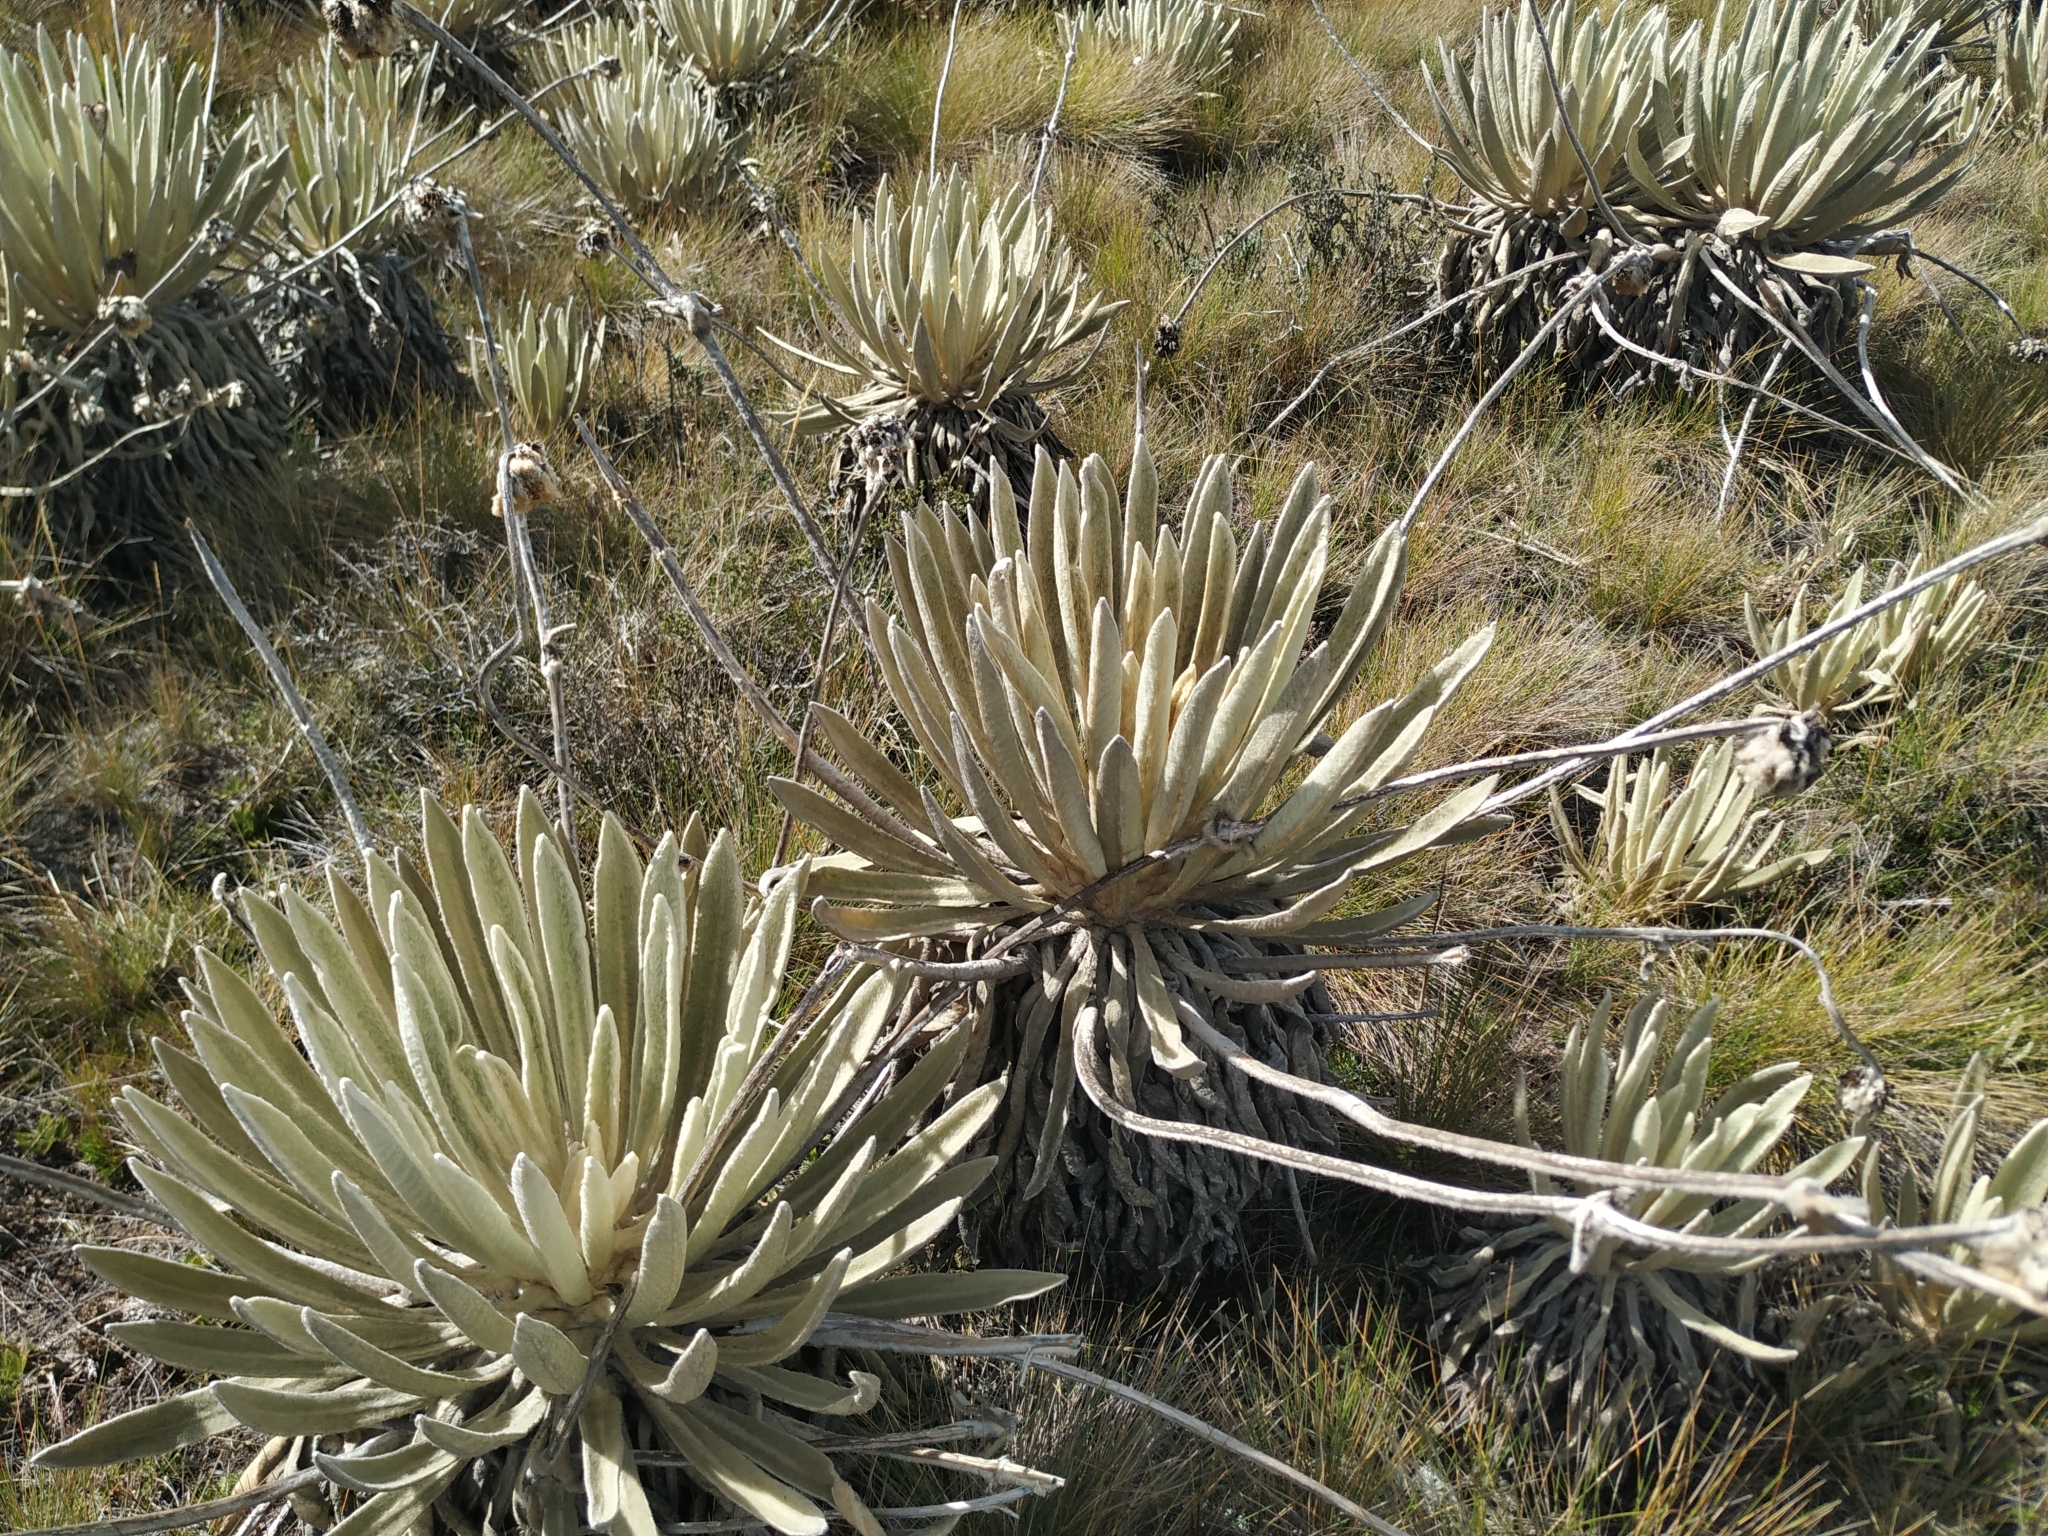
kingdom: Plantae
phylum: Tracheophyta
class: Magnoliopsida
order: Asterales
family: Asteraceae
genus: Espeletia
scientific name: Espeletia congestiflora
